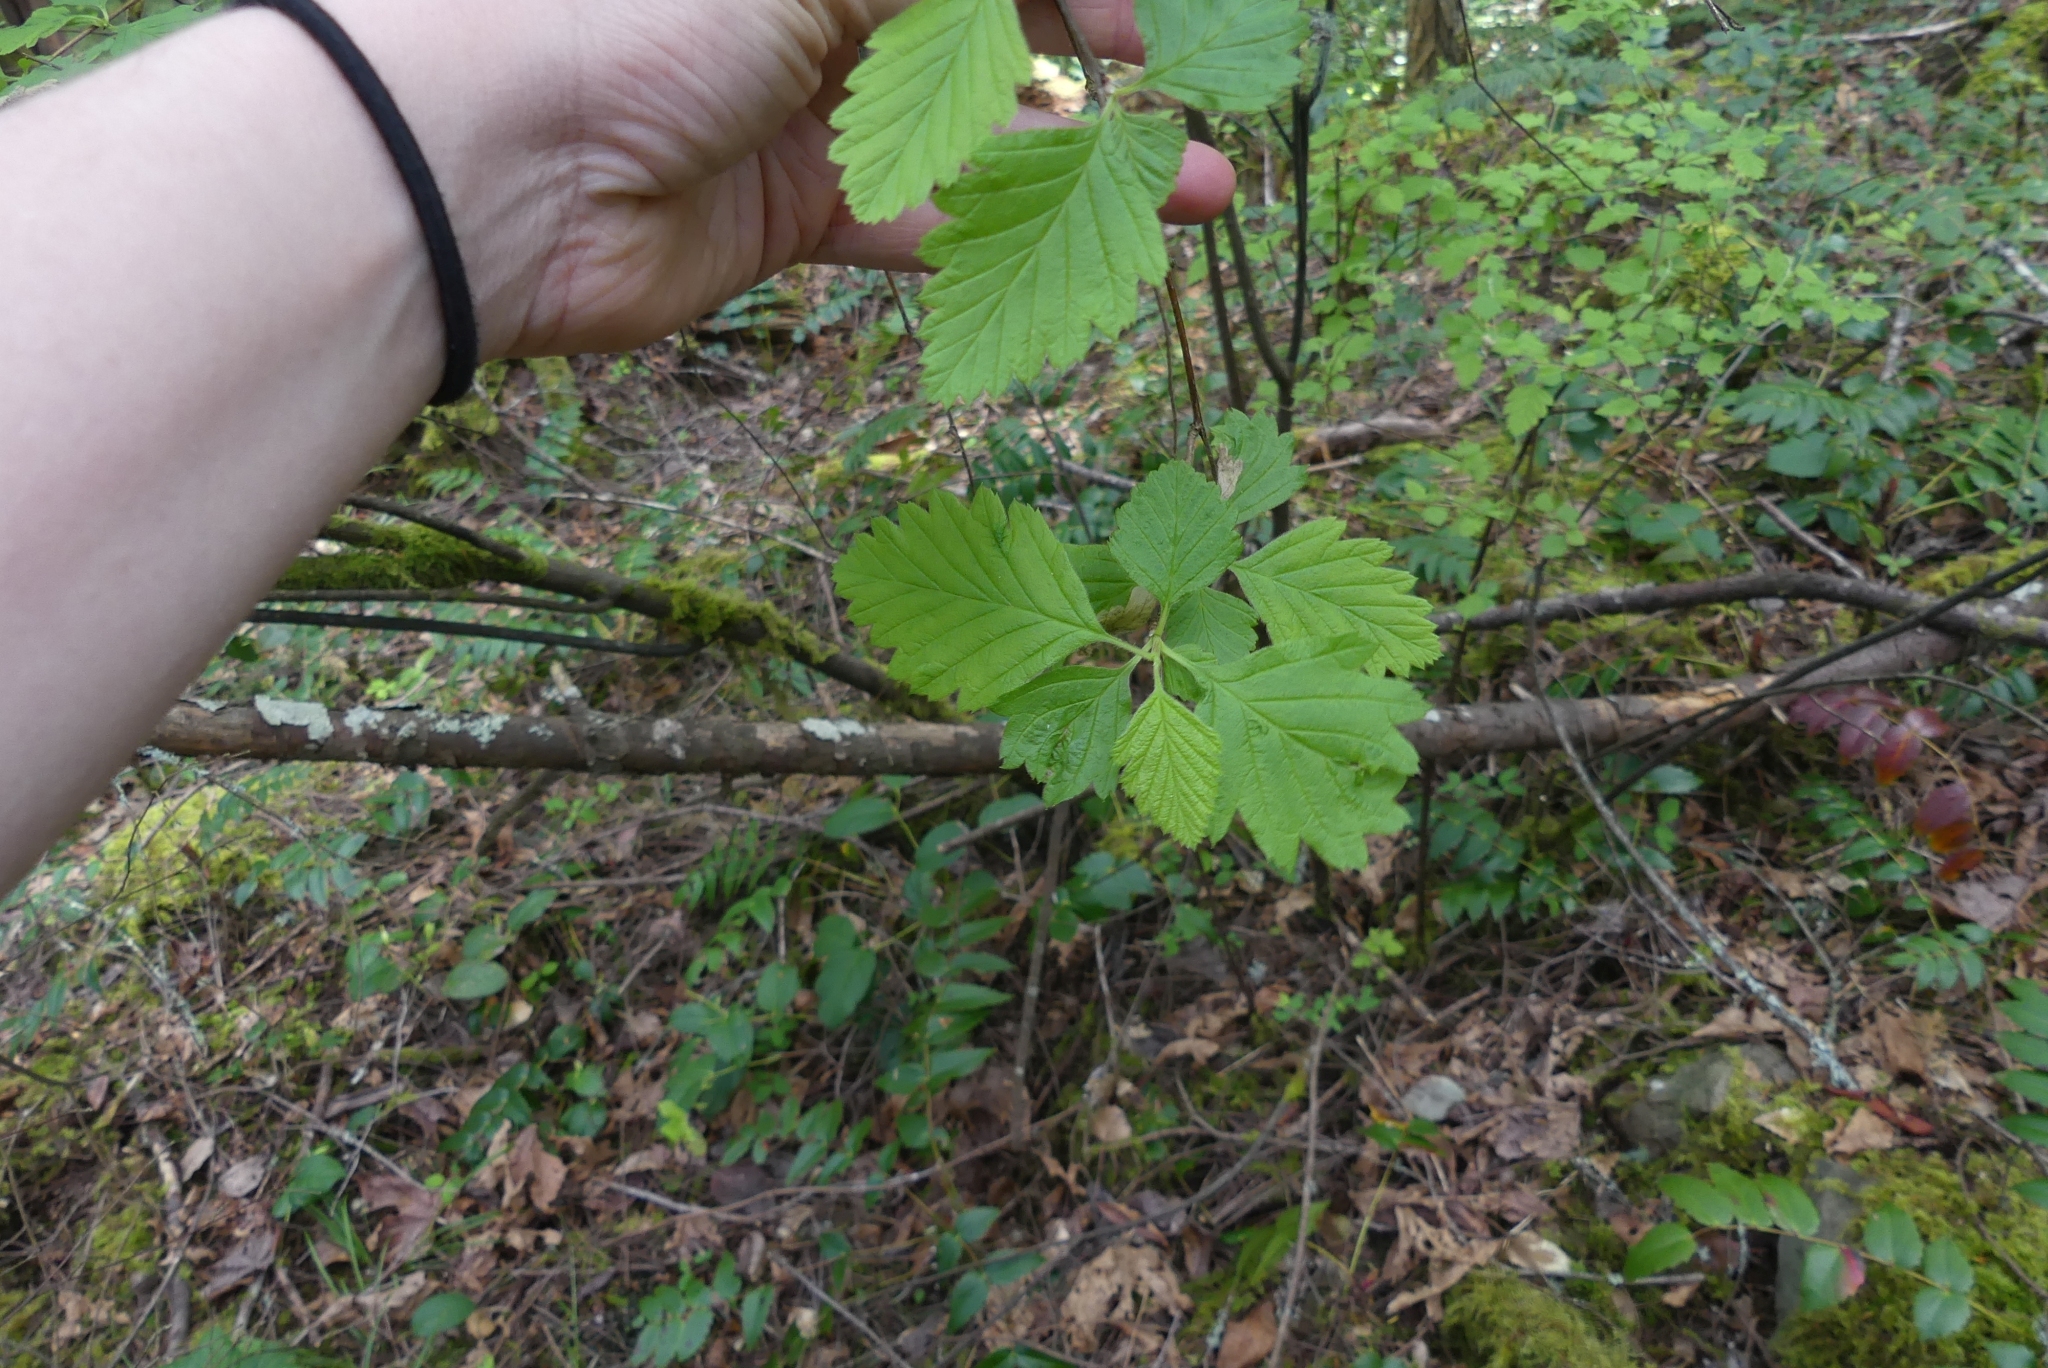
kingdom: Plantae
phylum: Tracheophyta
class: Magnoliopsida
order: Rosales
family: Rosaceae
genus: Holodiscus
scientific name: Holodiscus discolor
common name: Oceanspray
